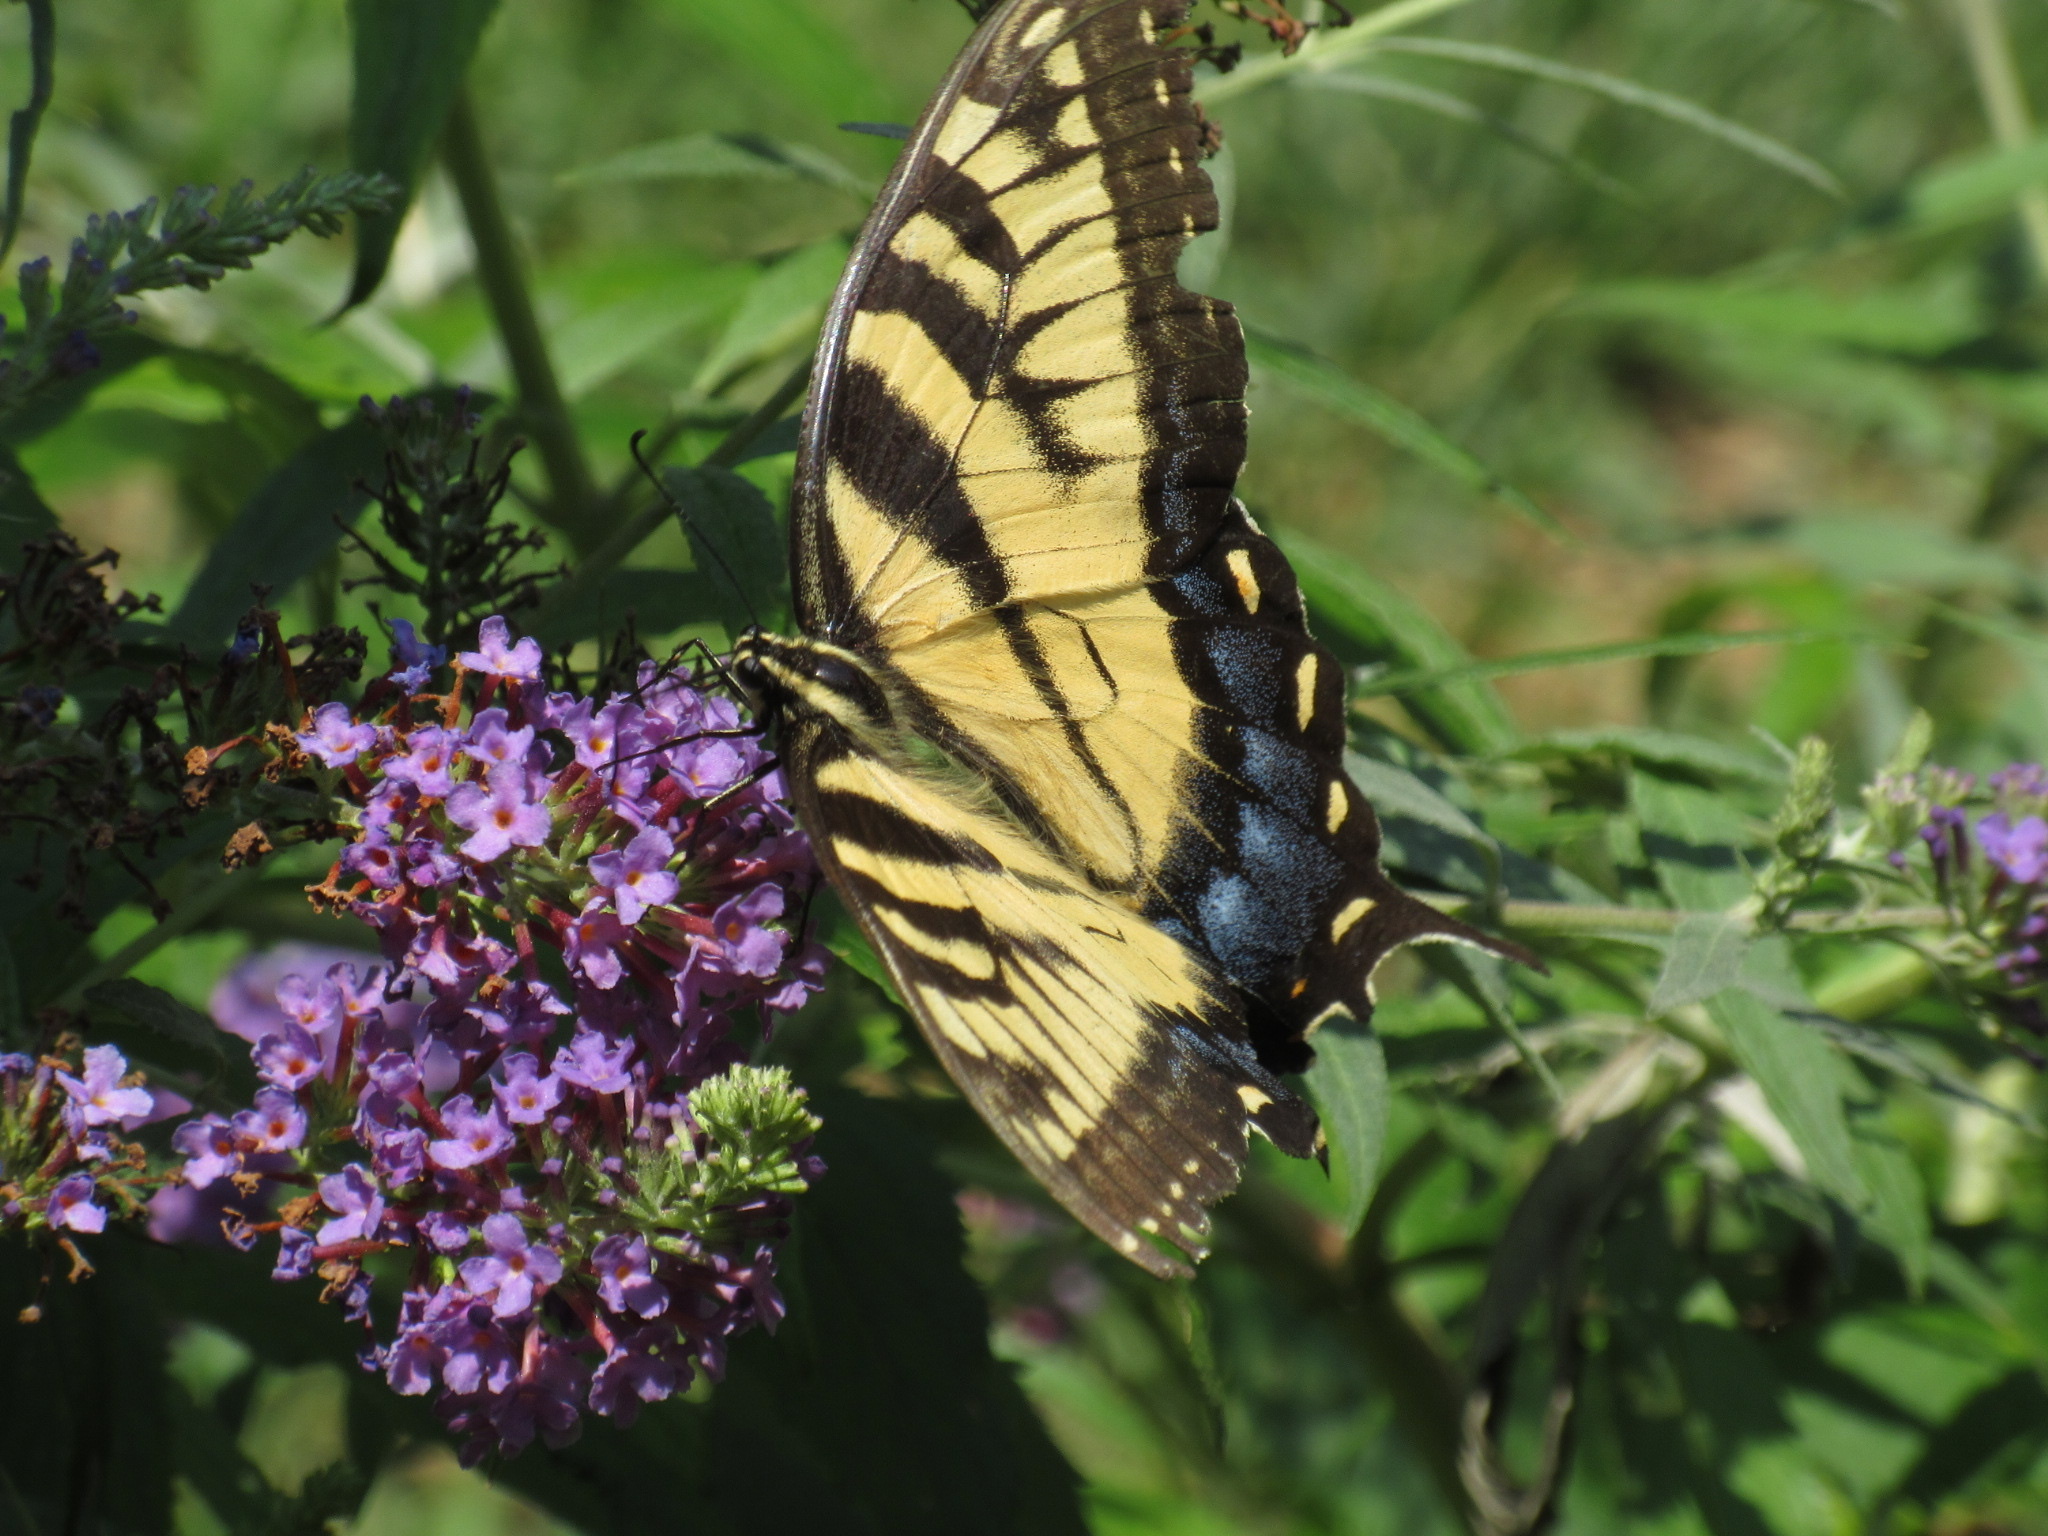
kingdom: Animalia
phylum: Arthropoda
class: Insecta
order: Lepidoptera
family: Papilionidae
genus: Papilio
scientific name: Papilio glaucus
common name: Tiger swallowtail
